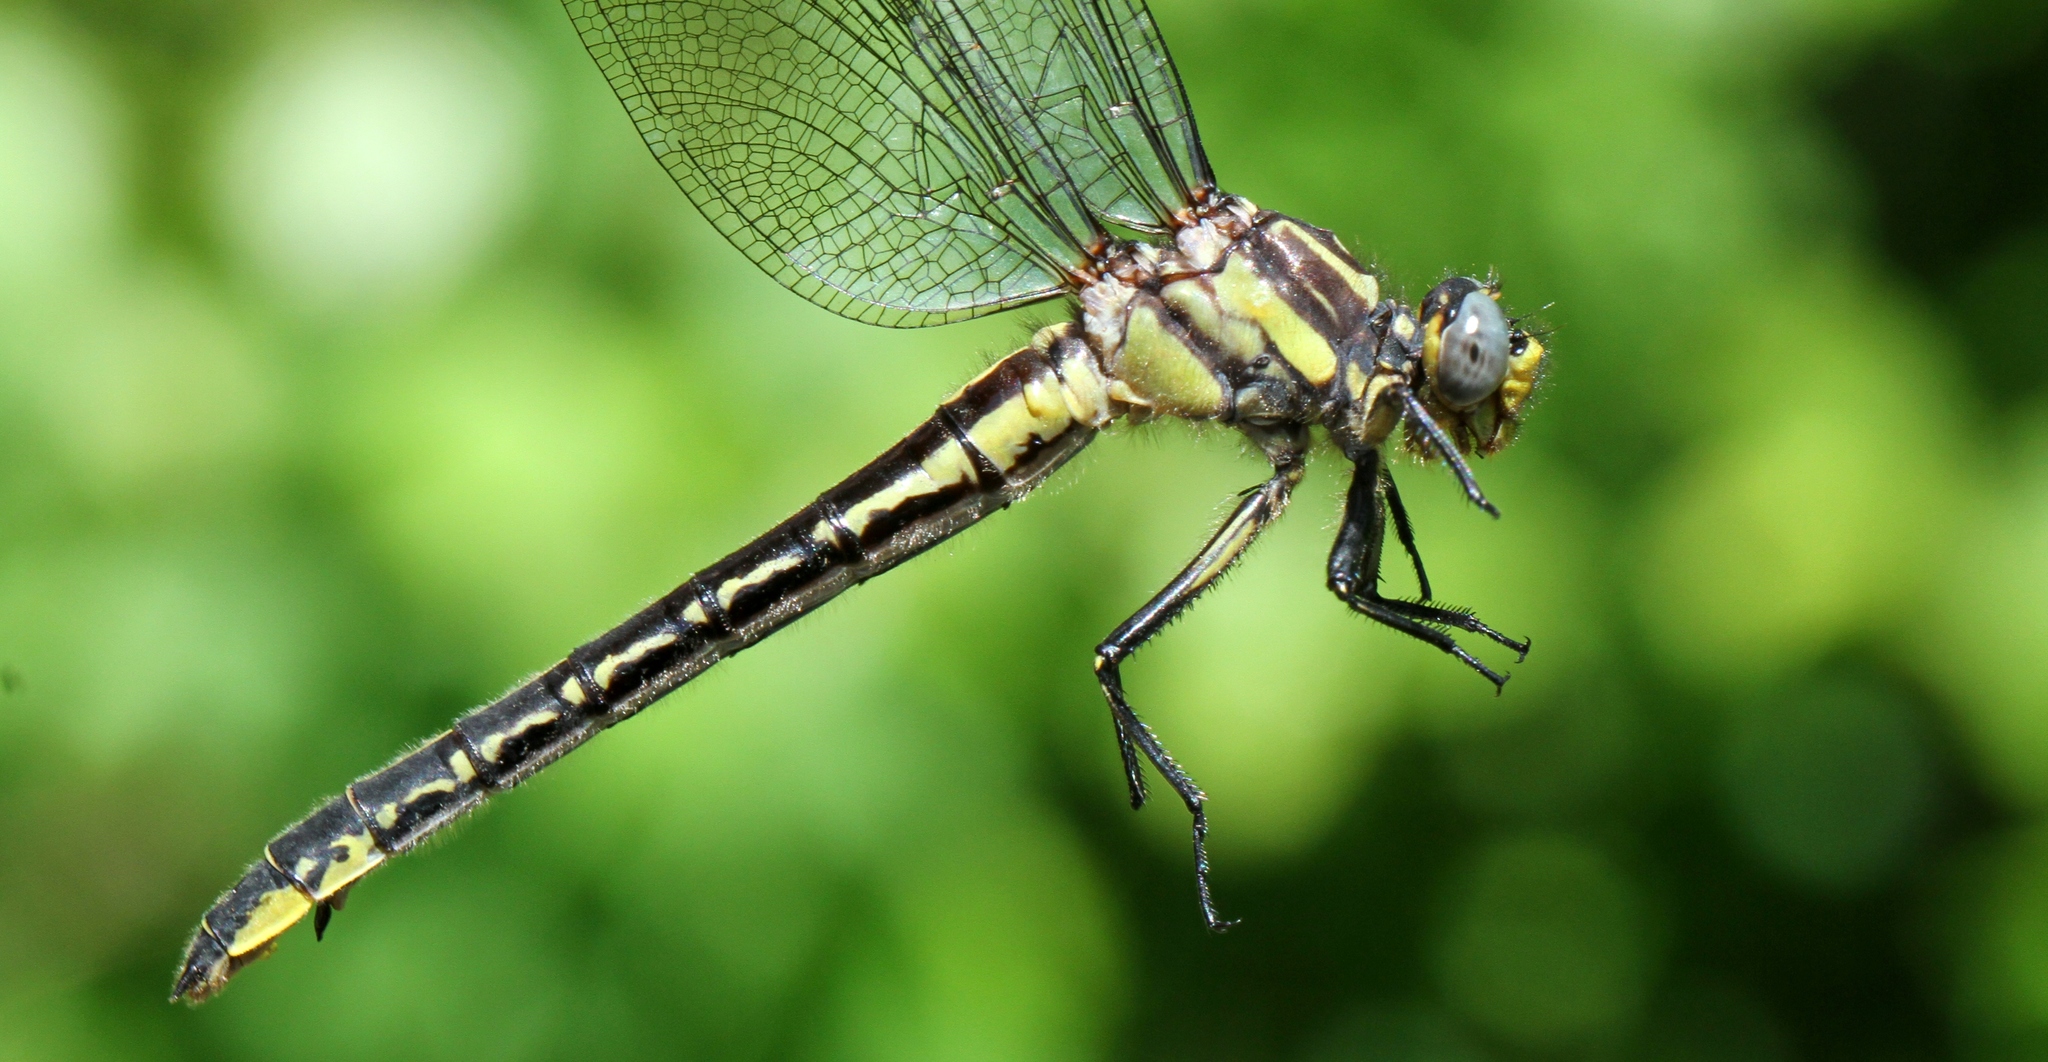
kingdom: Animalia
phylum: Arthropoda
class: Insecta
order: Odonata
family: Gomphidae
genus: Phanogomphus
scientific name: Phanogomphus descriptus
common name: Harpoon clubtail
